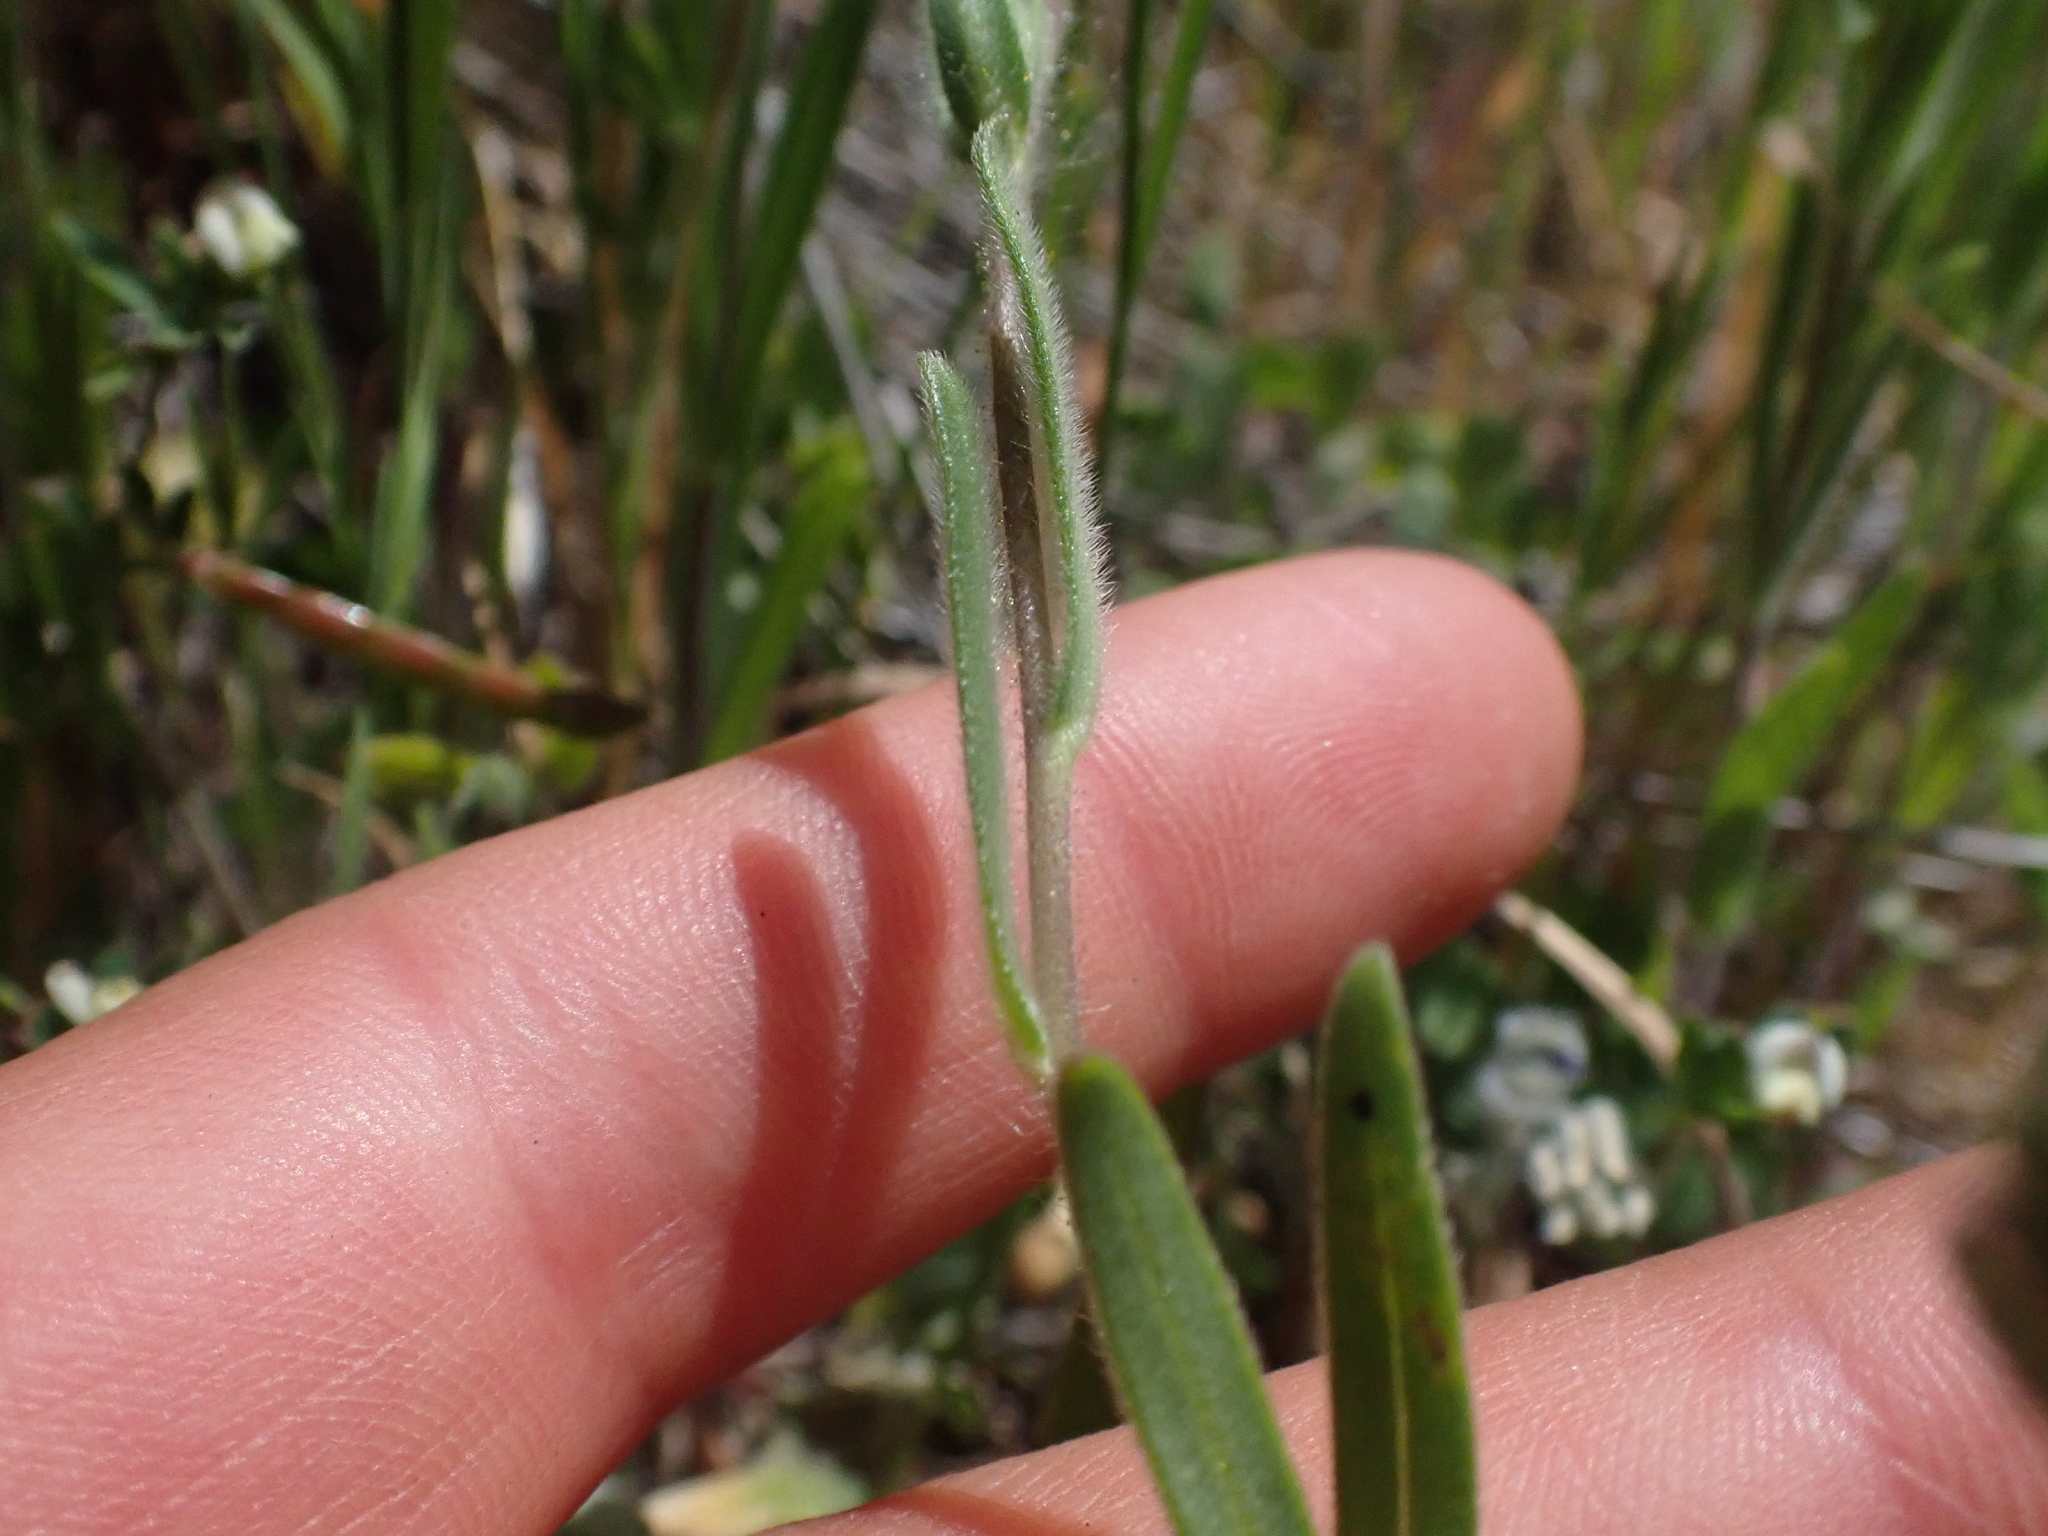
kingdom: Plantae
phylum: Tracheophyta
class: Magnoliopsida
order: Asterales
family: Asteraceae
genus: Madia
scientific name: Madia gracilis
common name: Grassy tarweed
